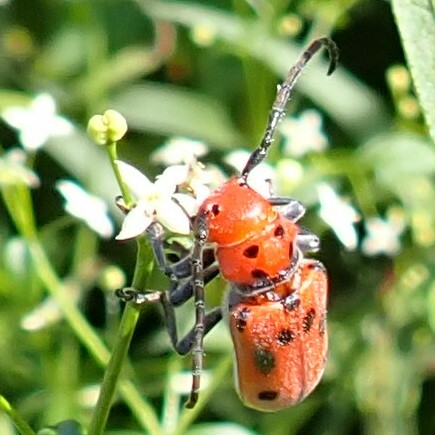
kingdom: Animalia
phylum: Arthropoda
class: Insecta
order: Coleoptera
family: Cerambycidae
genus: Tetraopes
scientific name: Tetraopes tetrophthalmus
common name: Red milkweed beetle
